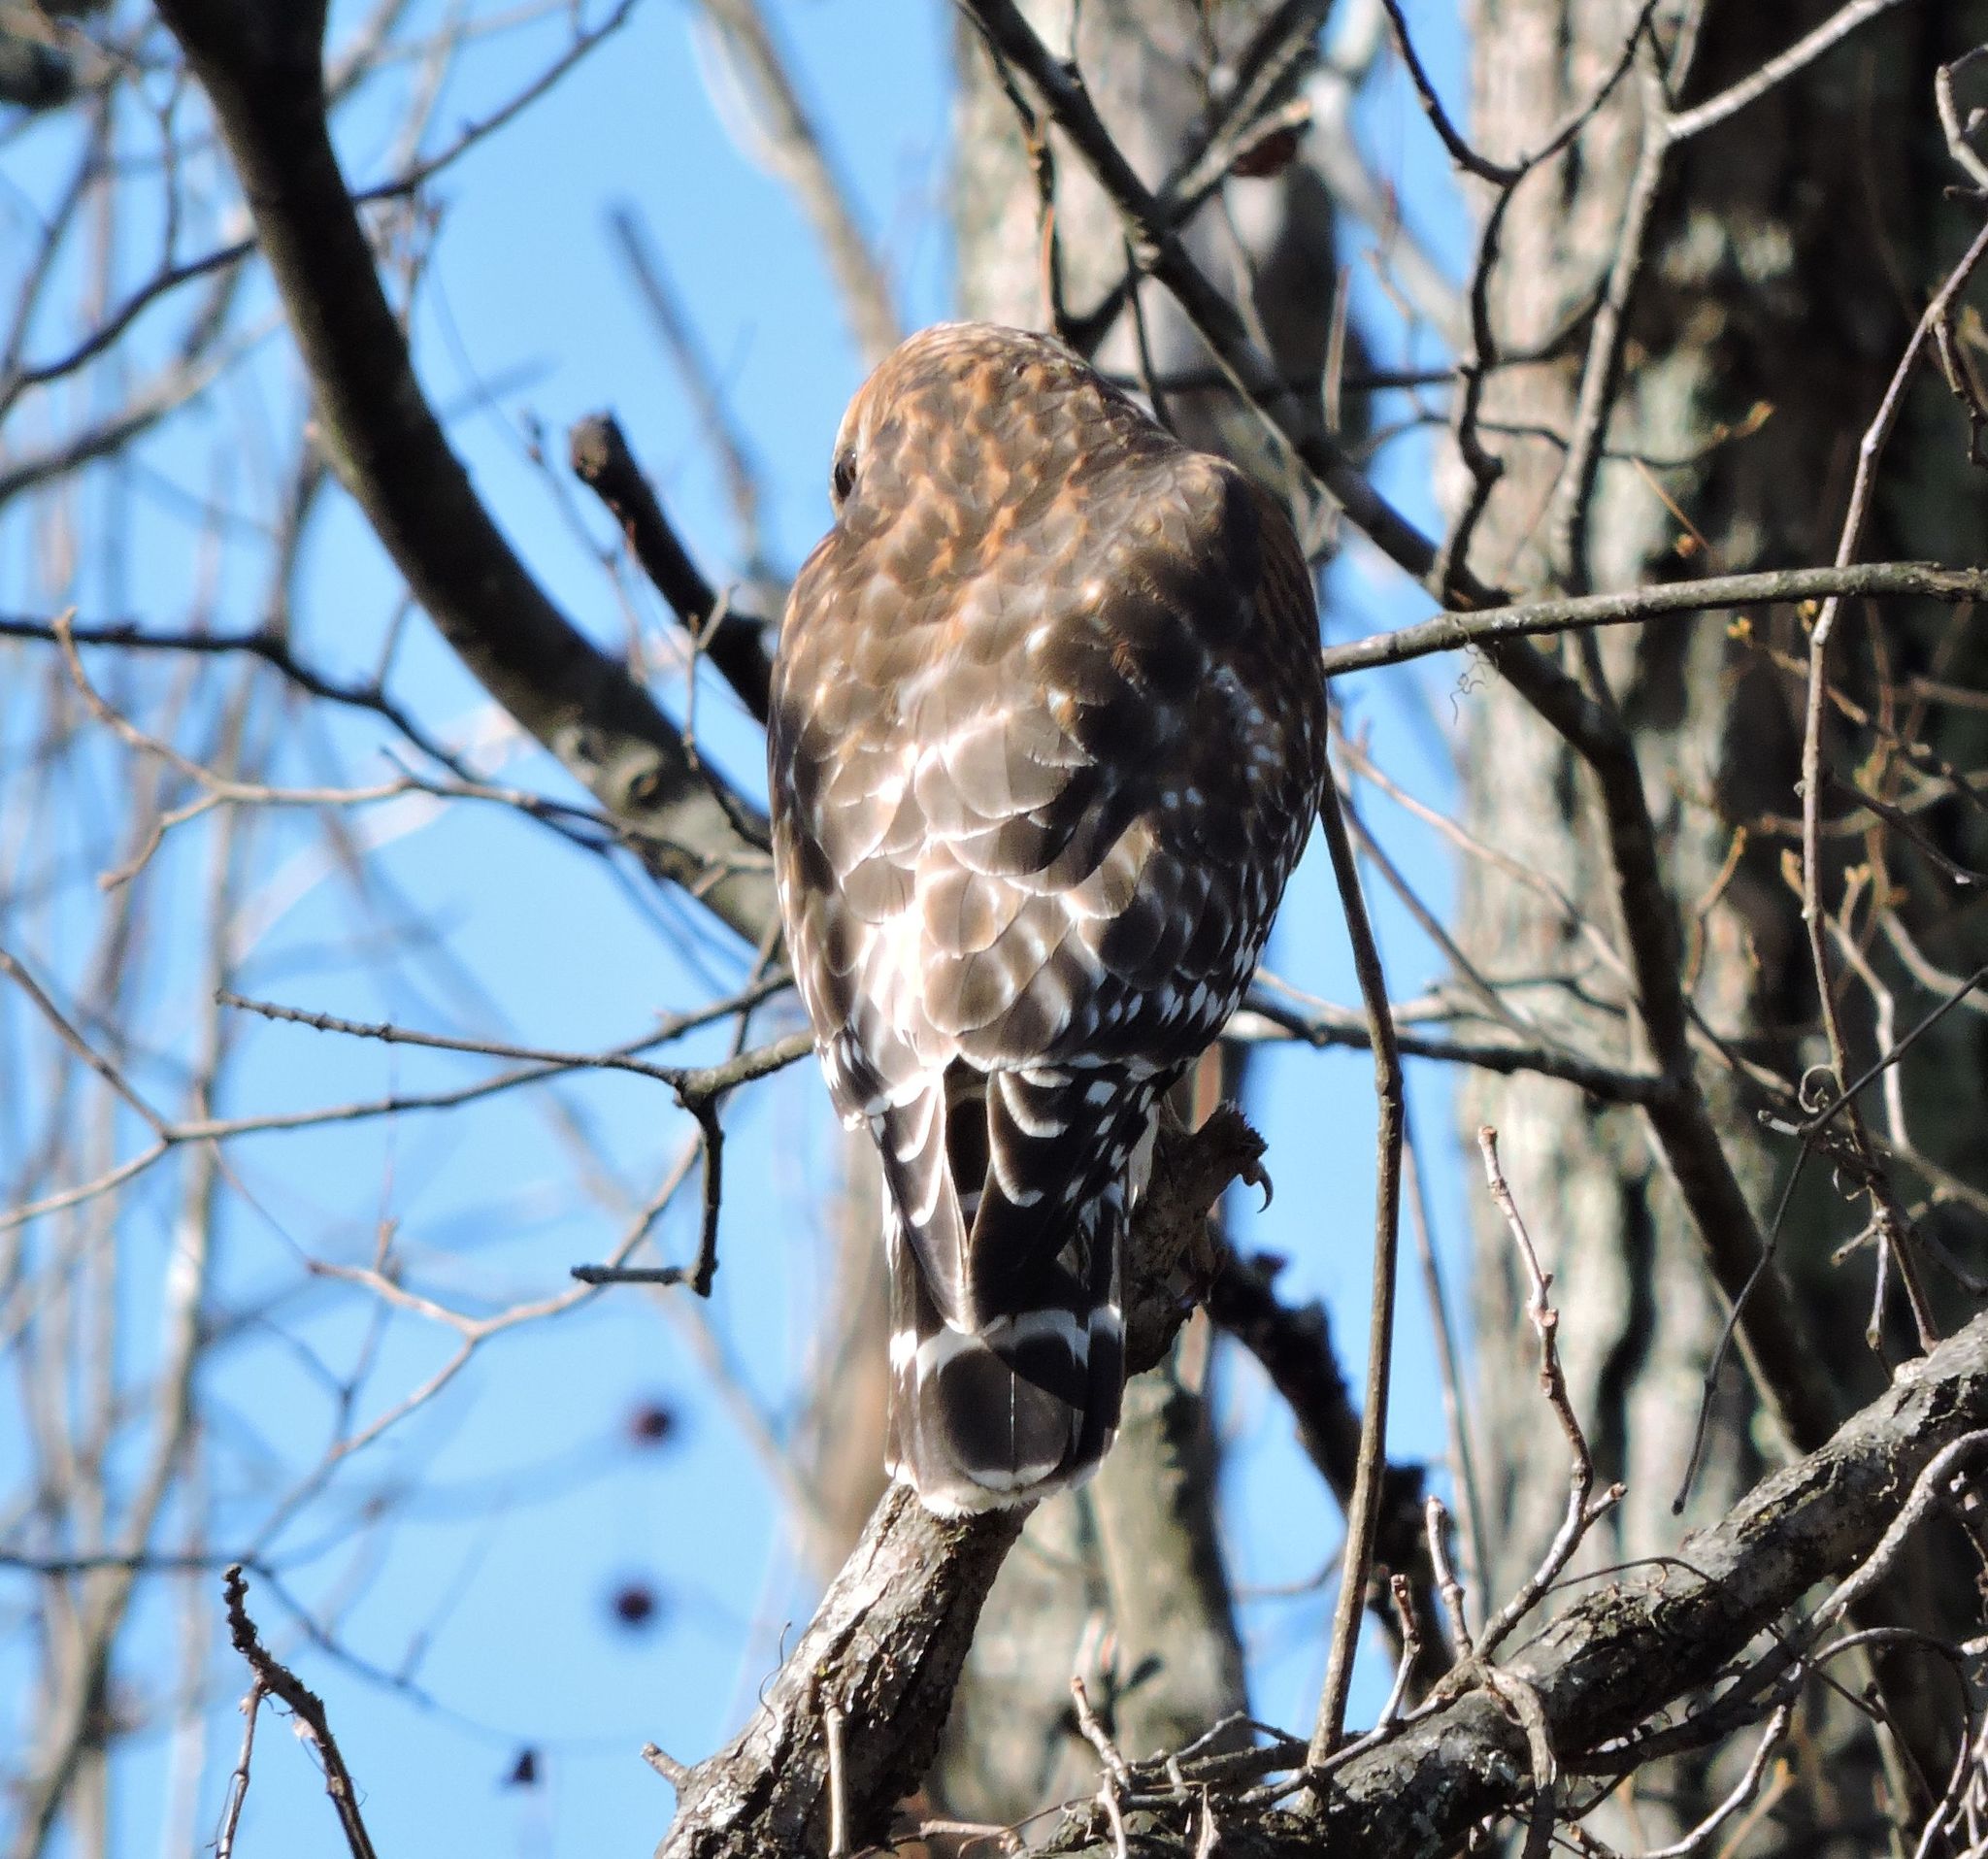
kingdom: Animalia
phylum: Chordata
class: Aves
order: Accipitriformes
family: Accipitridae
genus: Buteo
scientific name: Buteo lineatus
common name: Red-shouldered hawk
